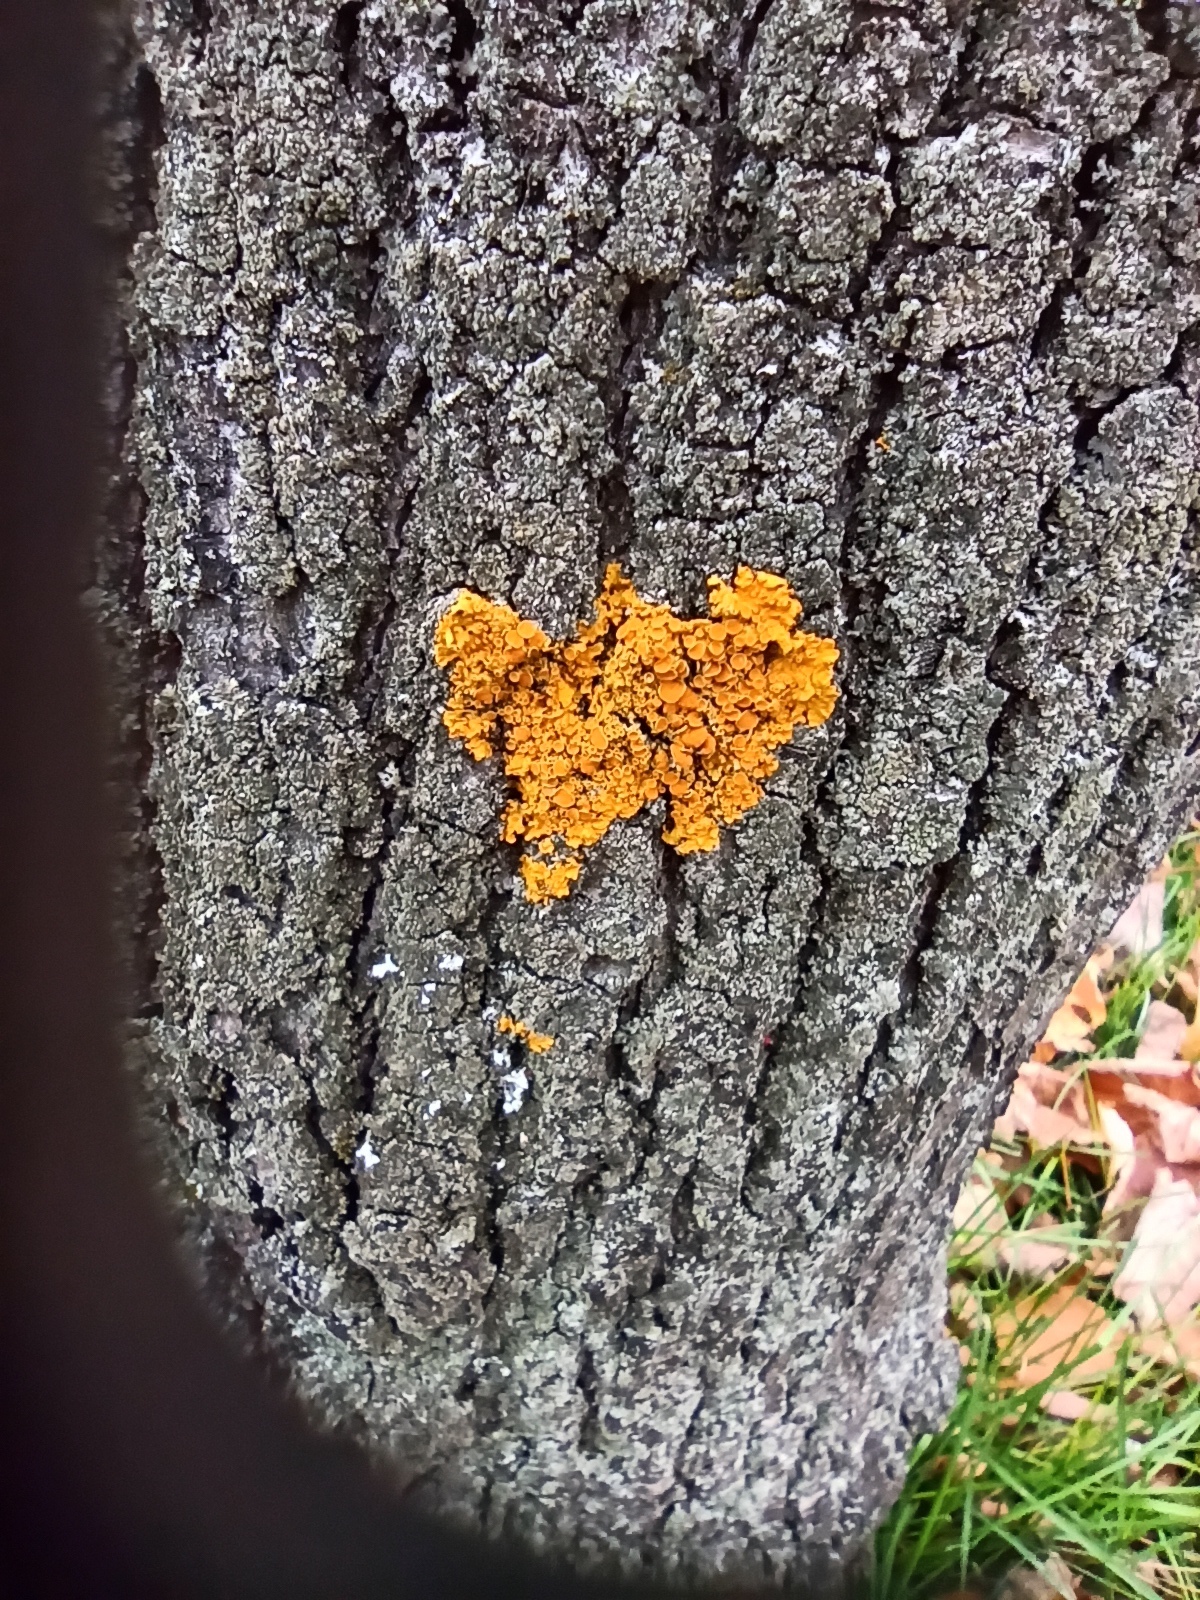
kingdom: Fungi
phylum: Ascomycota
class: Lecanoromycetes
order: Teloschistales
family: Teloschistaceae
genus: Xanthoria
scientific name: Xanthoria parietina
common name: Common orange lichen
